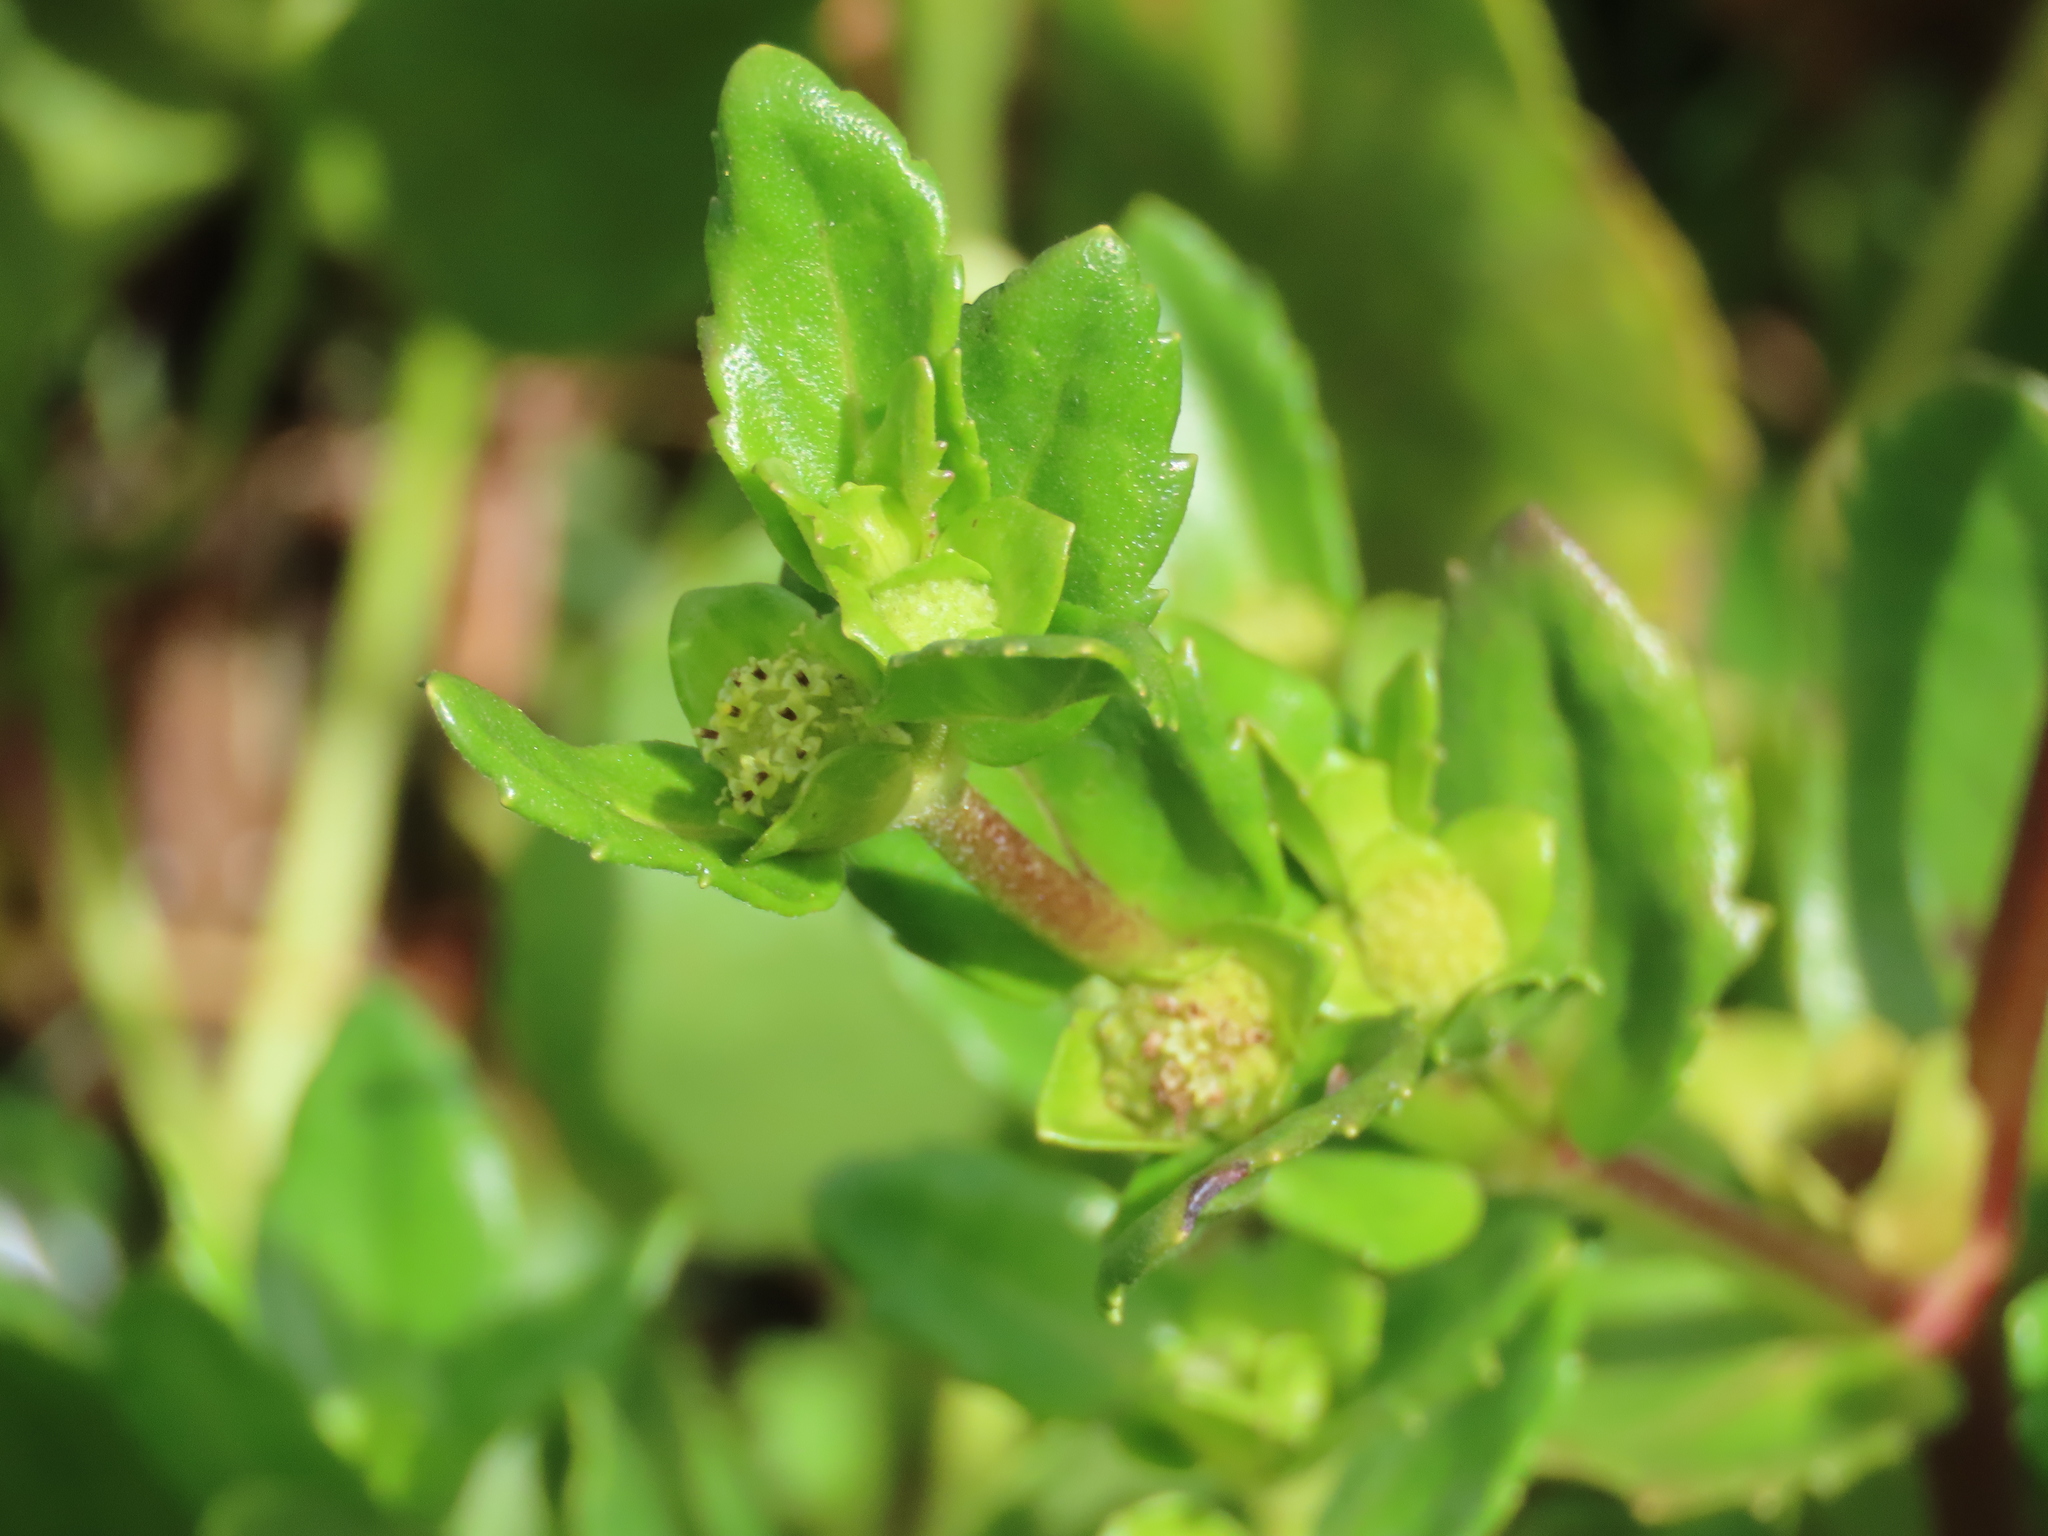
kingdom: Plantae
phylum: Tracheophyta
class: Magnoliopsida
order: Asterales
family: Asteraceae
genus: Enydra
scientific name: Enydra sessilis
